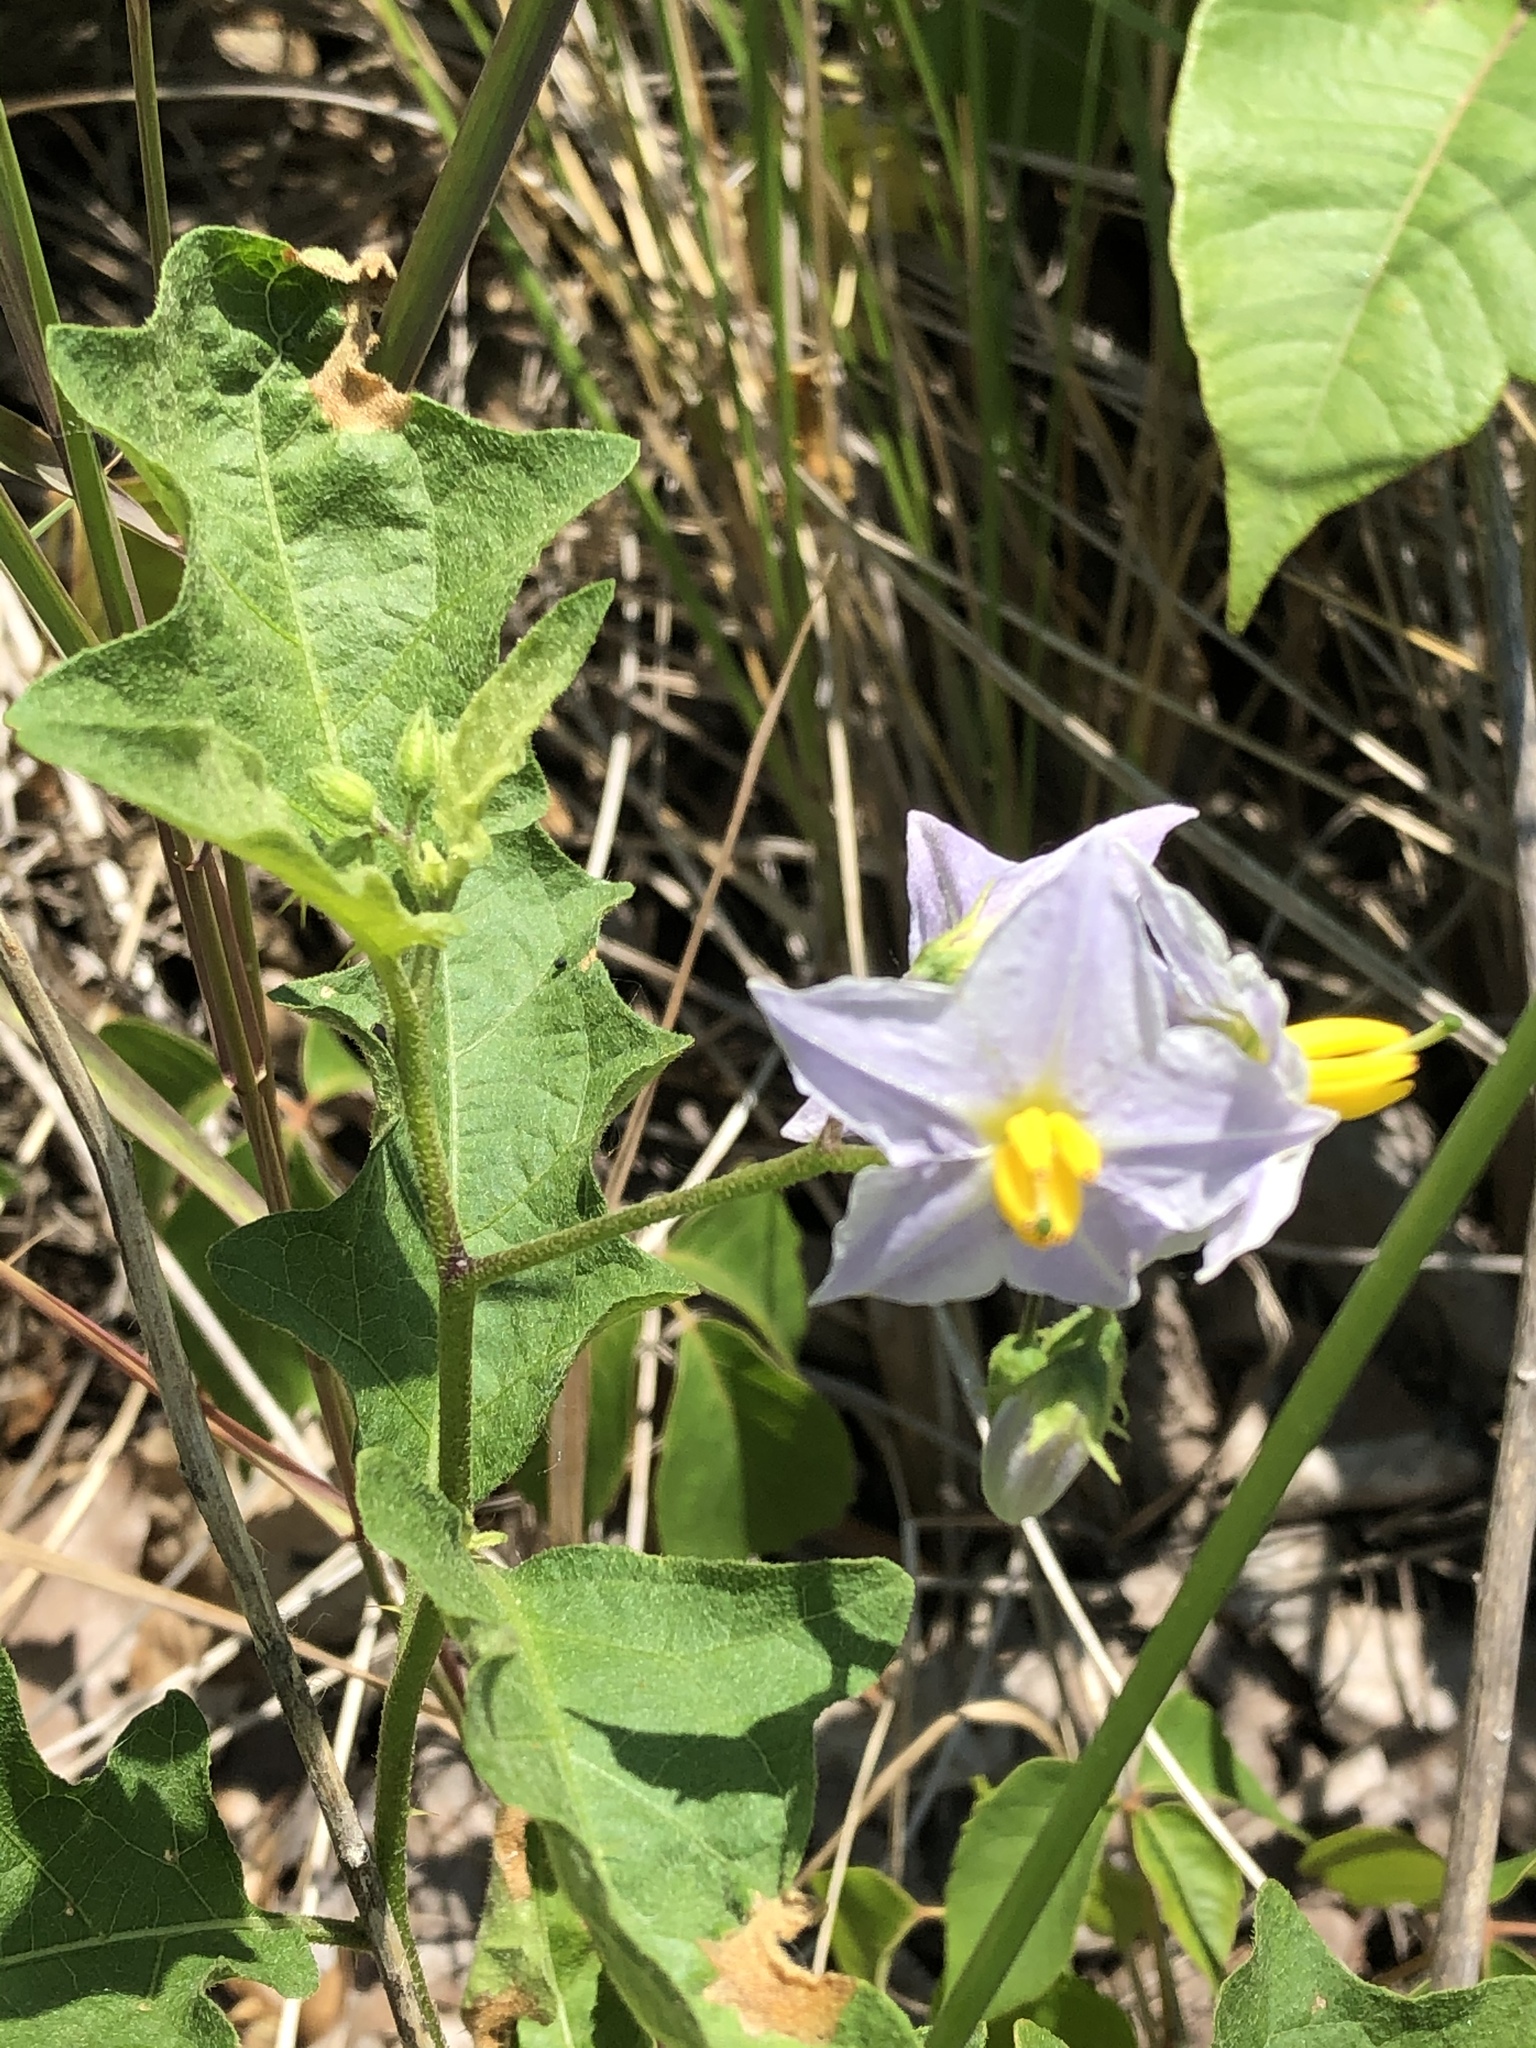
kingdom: Plantae
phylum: Tracheophyta
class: Magnoliopsida
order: Solanales
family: Solanaceae
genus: Solanum
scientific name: Solanum carolinense
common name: Horse-nettle
